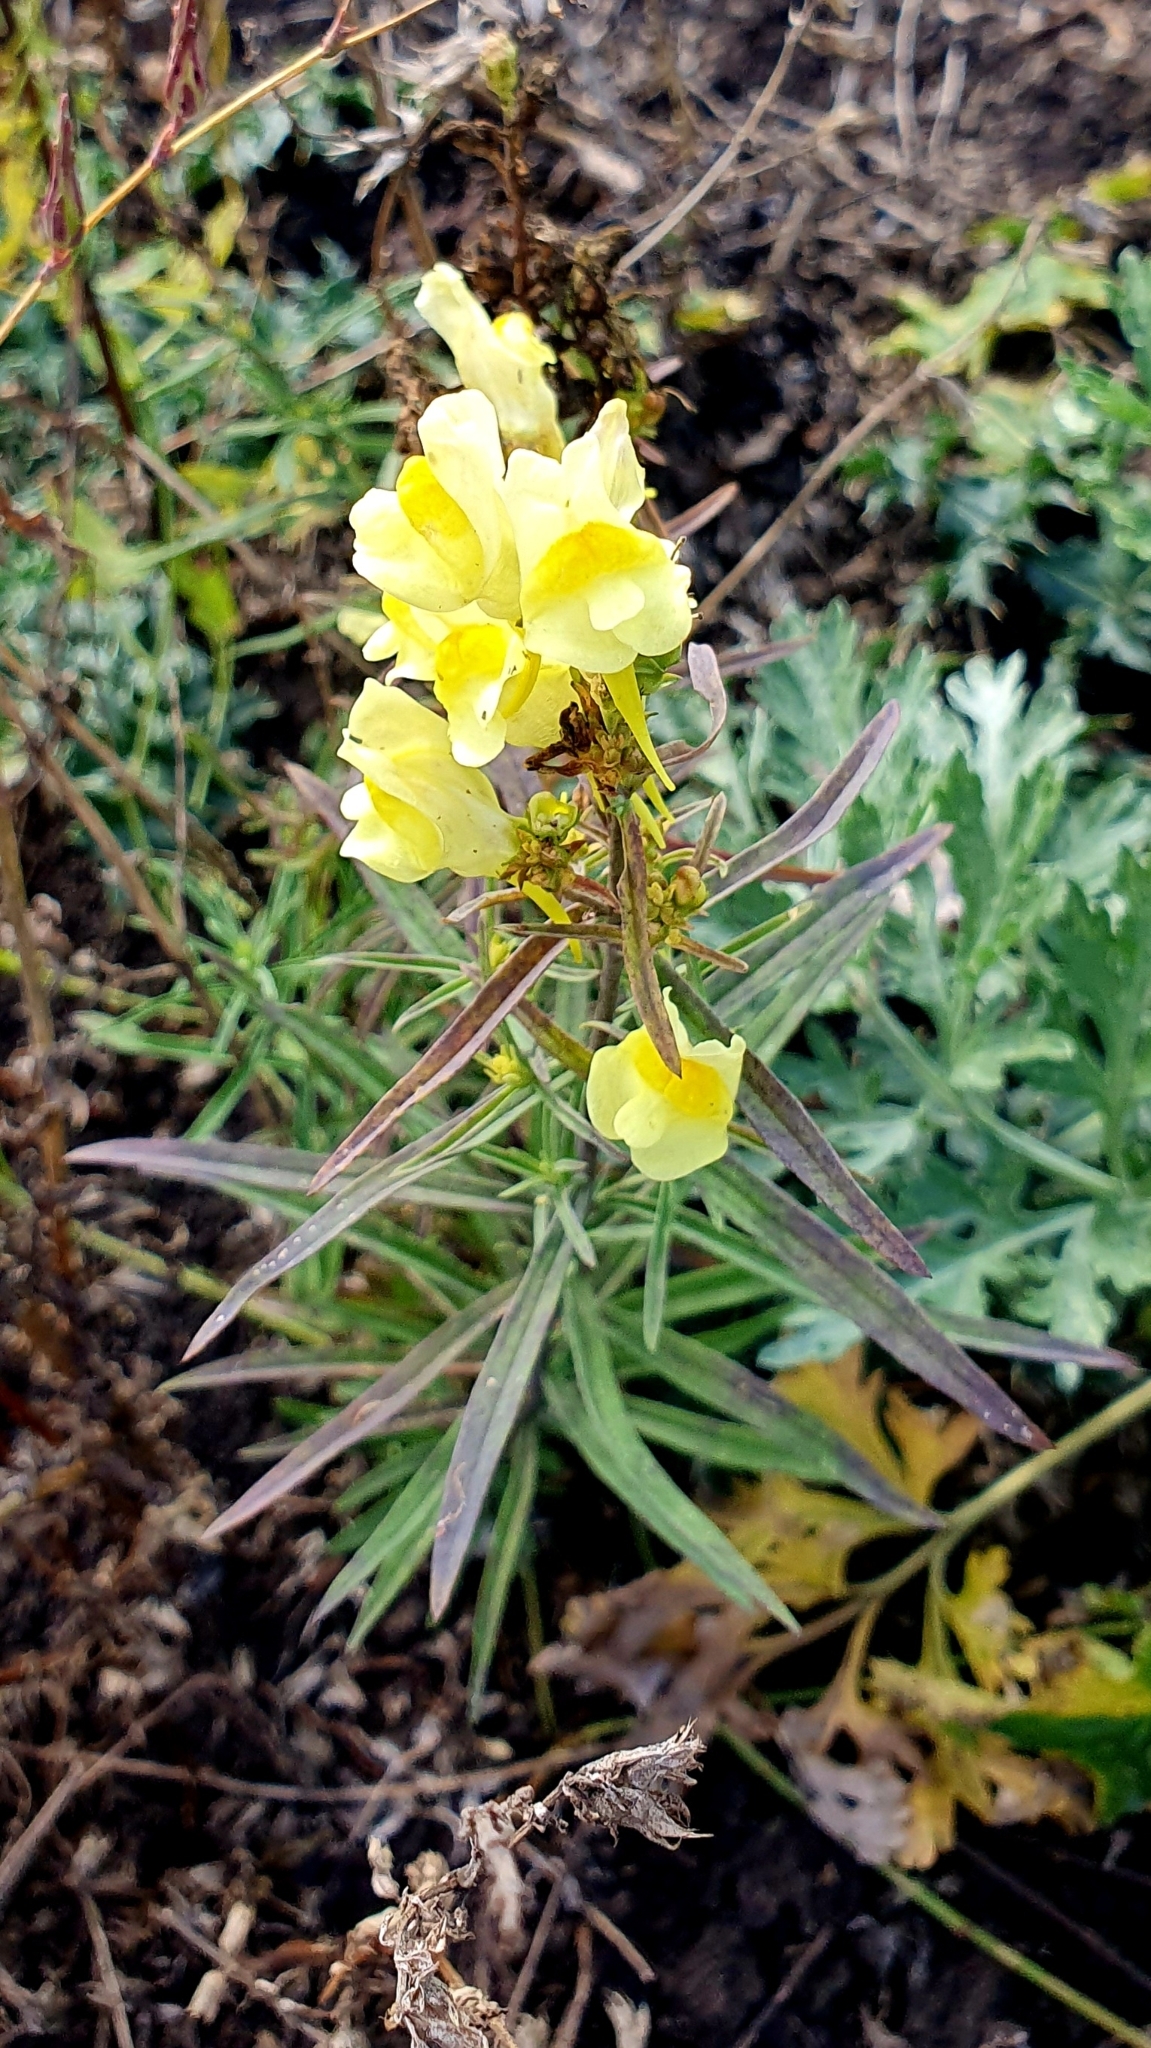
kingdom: Plantae
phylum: Tracheophyta
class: Magnoliopsida
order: Lamiales
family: Plantaginaceae
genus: Linaria
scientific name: Linaria vulgaris
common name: Butter and eggs
